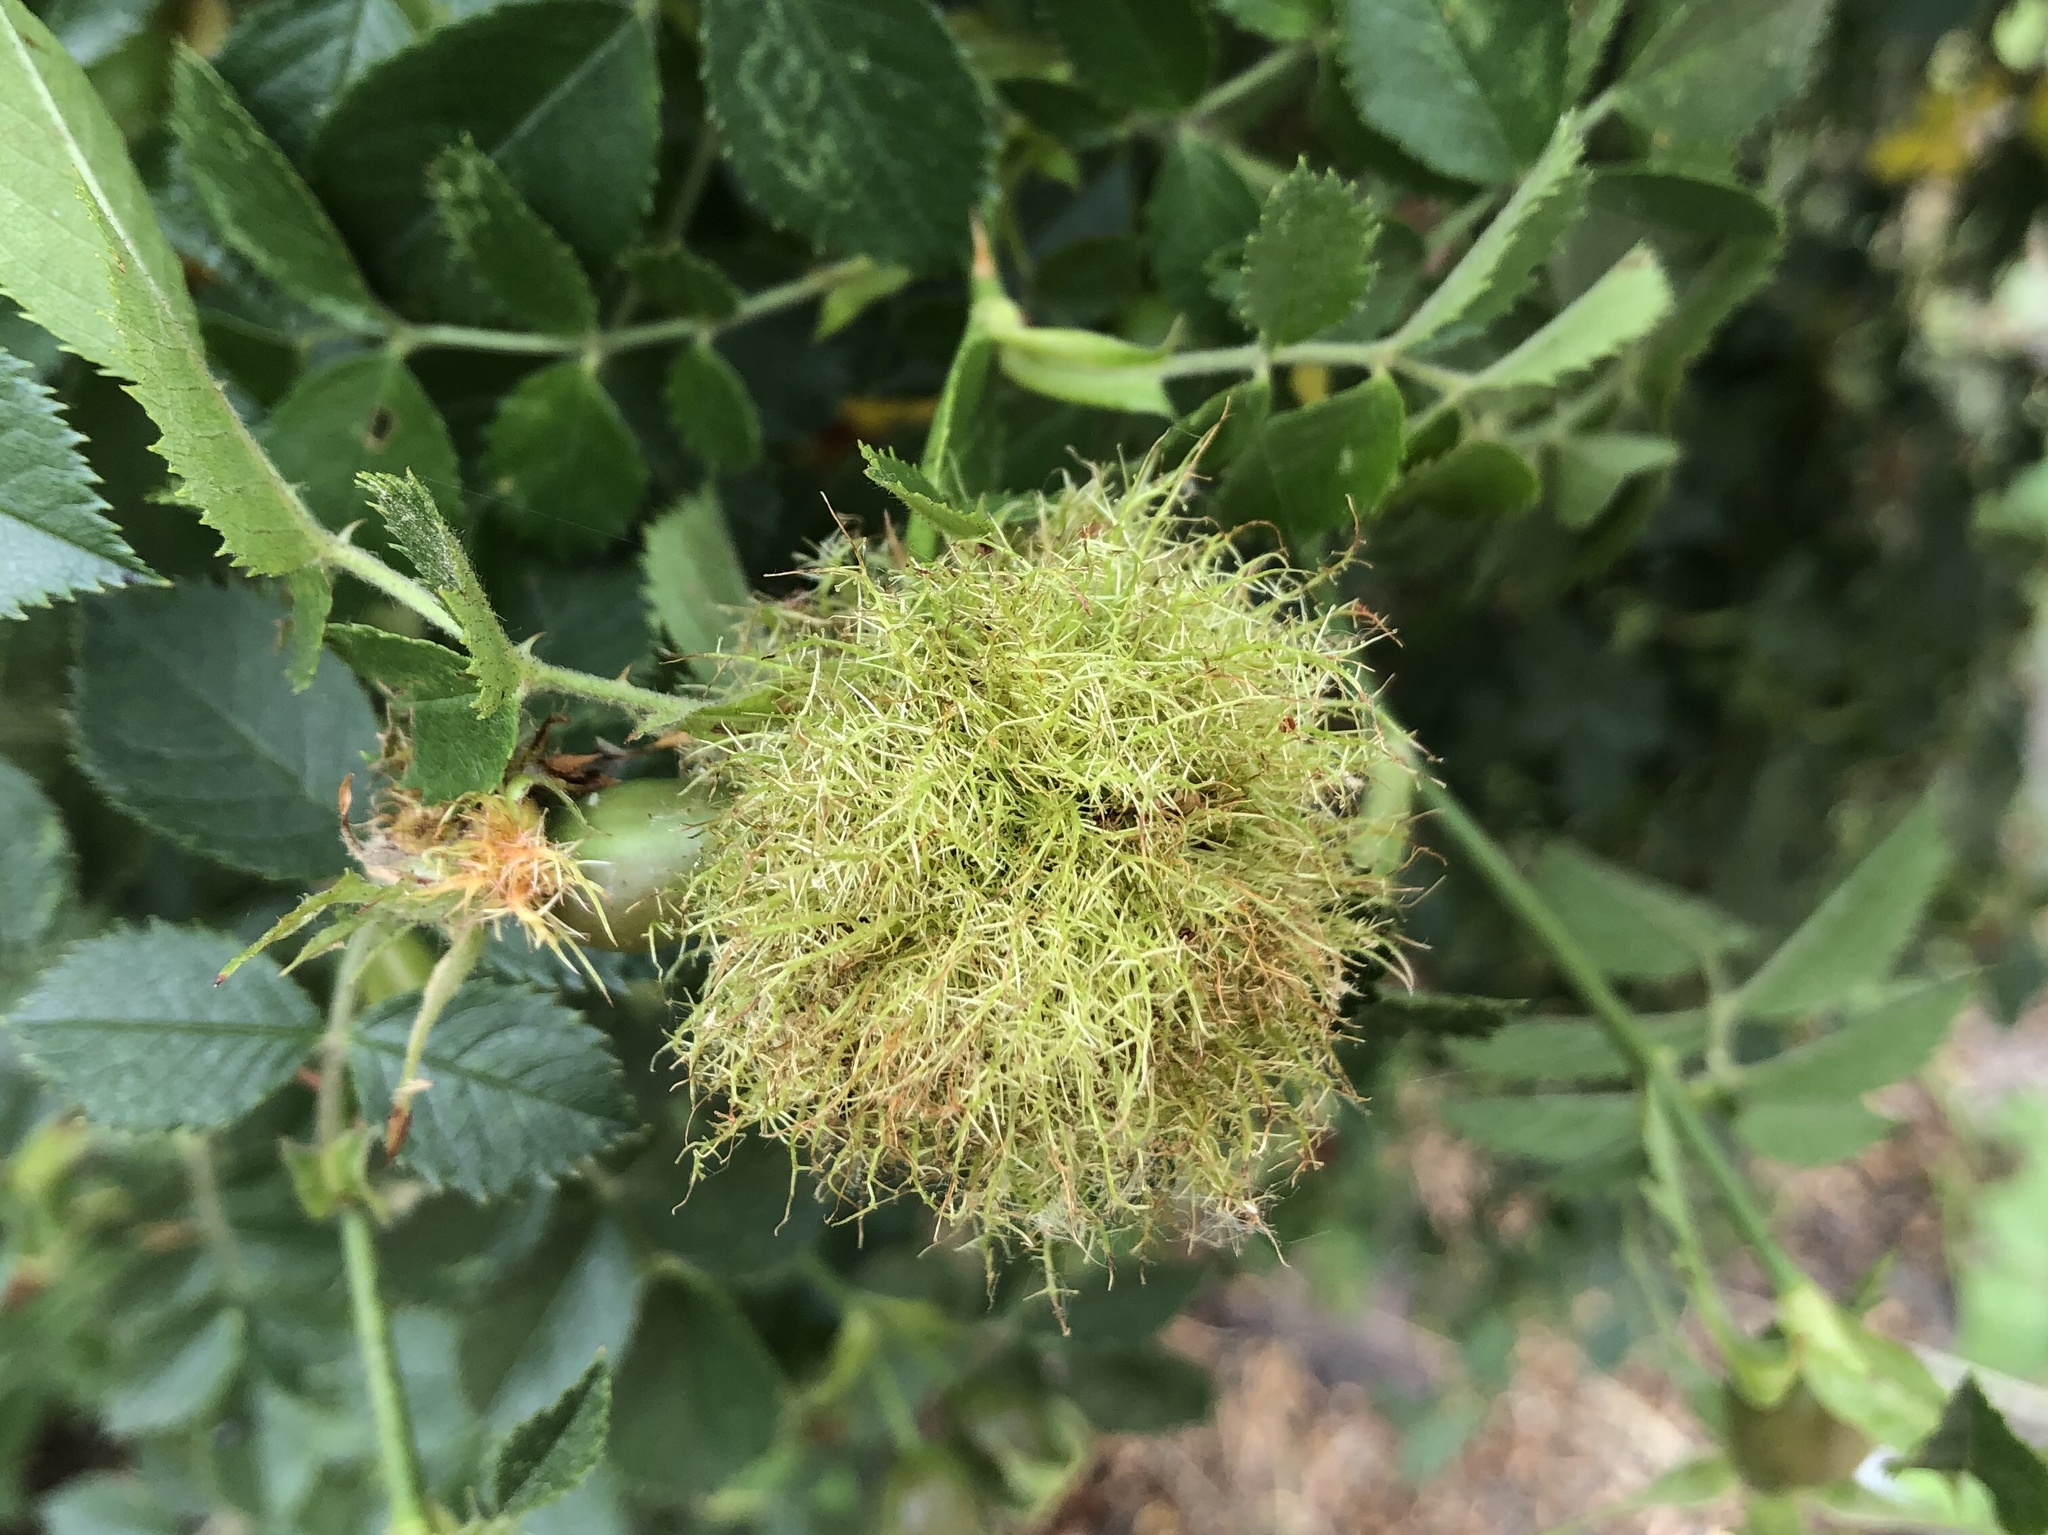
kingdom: Animalia
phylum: Arthropoda
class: Insecta
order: Hymenoptera
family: Cynipidae
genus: Diplolepis
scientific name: Diplolepis rosae
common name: Bedeguar gall
